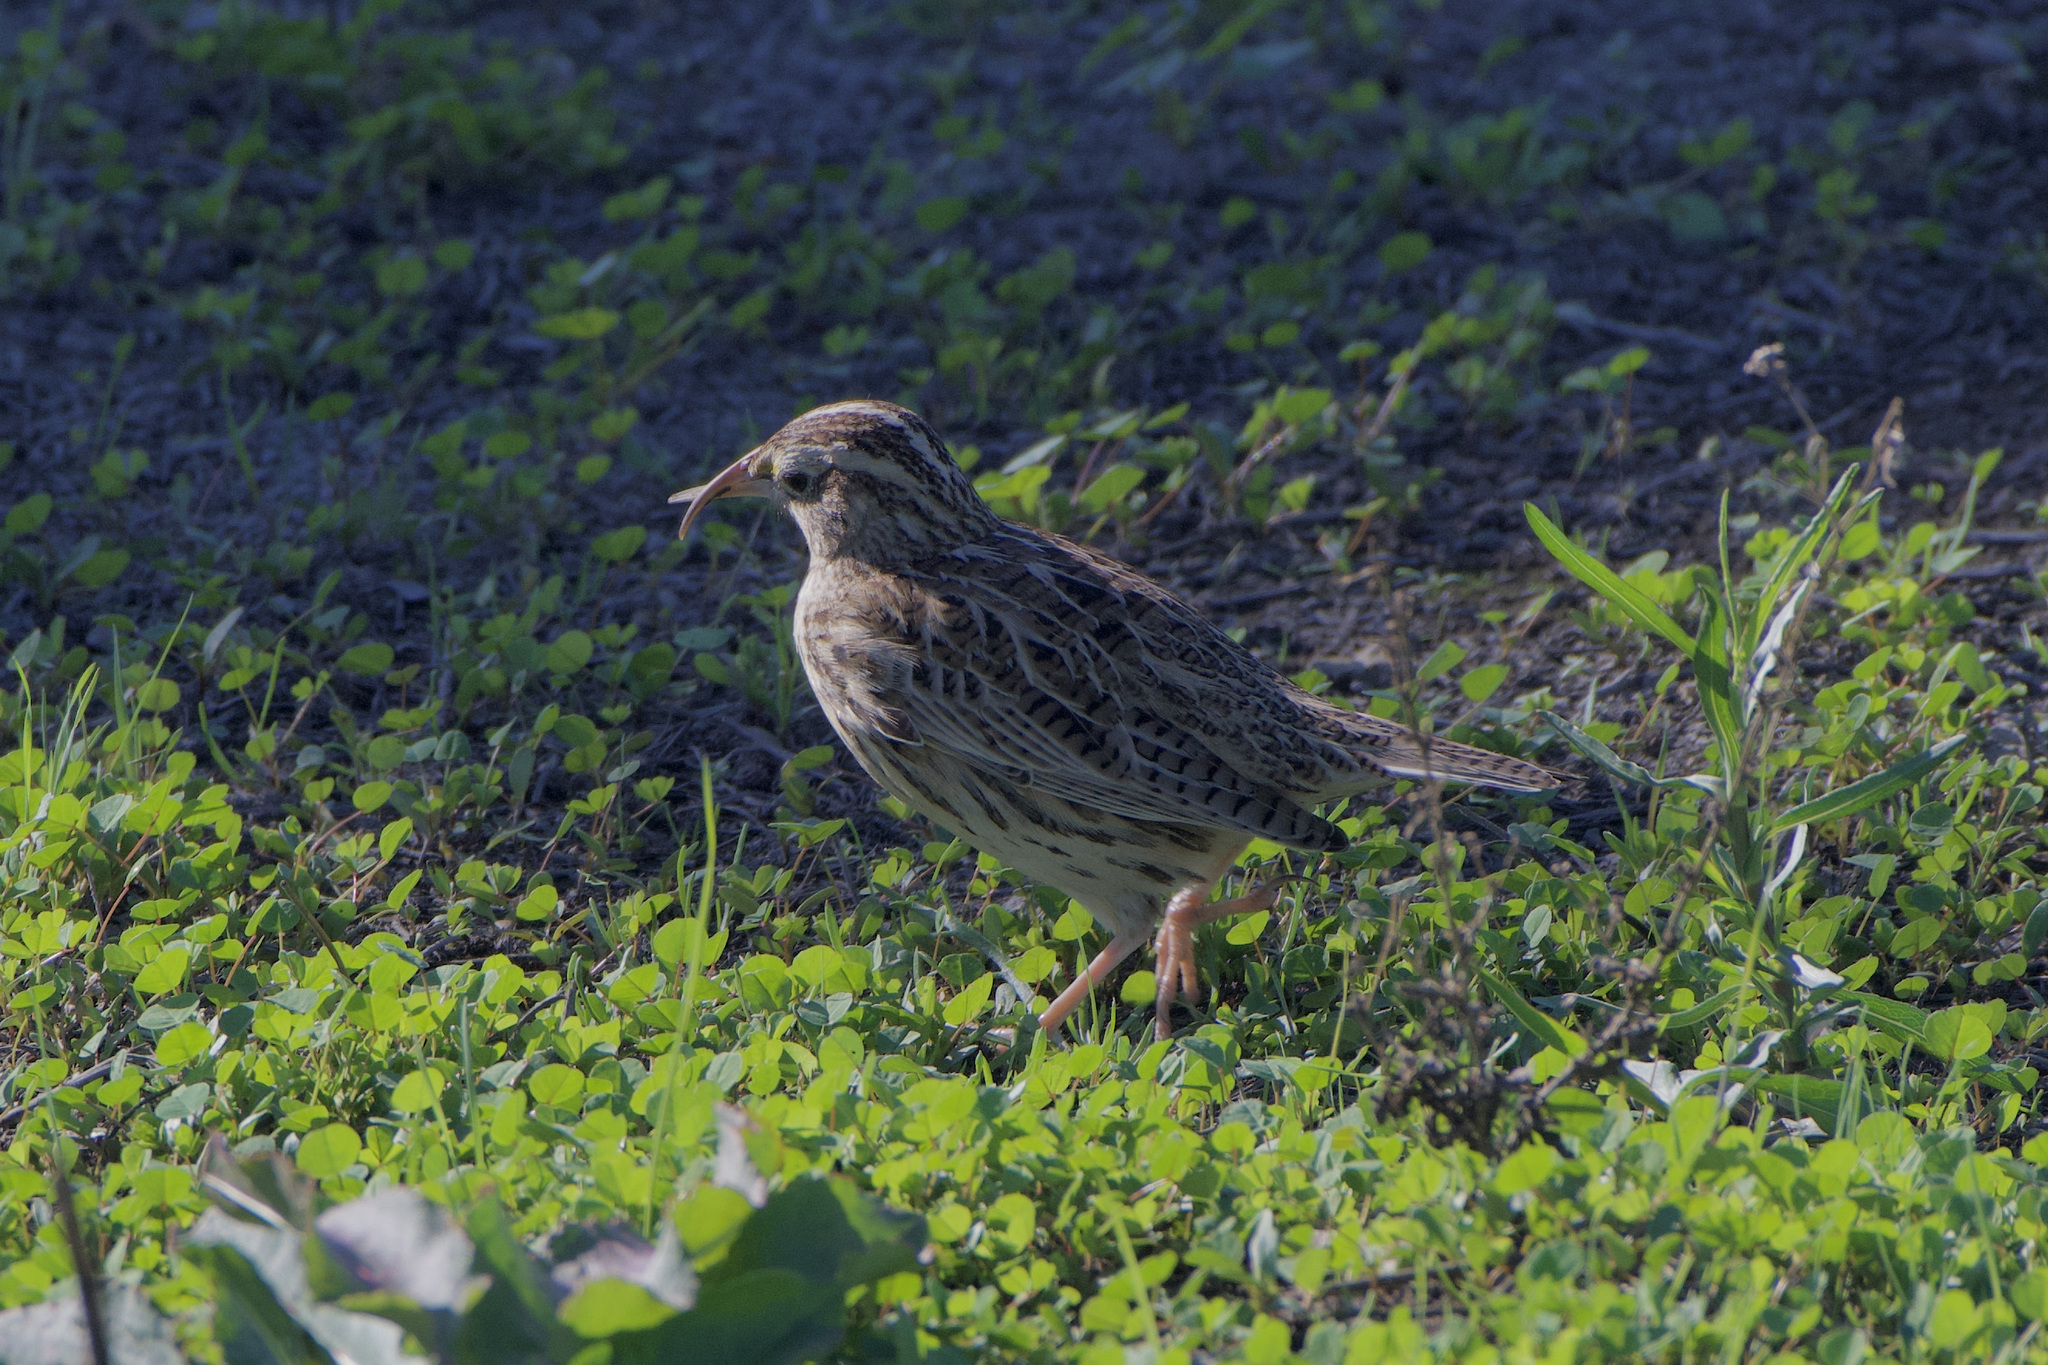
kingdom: Animalia
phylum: Chordata
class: Aves
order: Passeriformes
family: Icteridae
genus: Sturnella
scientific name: Sturnella neglecta
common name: Western meadowlark
